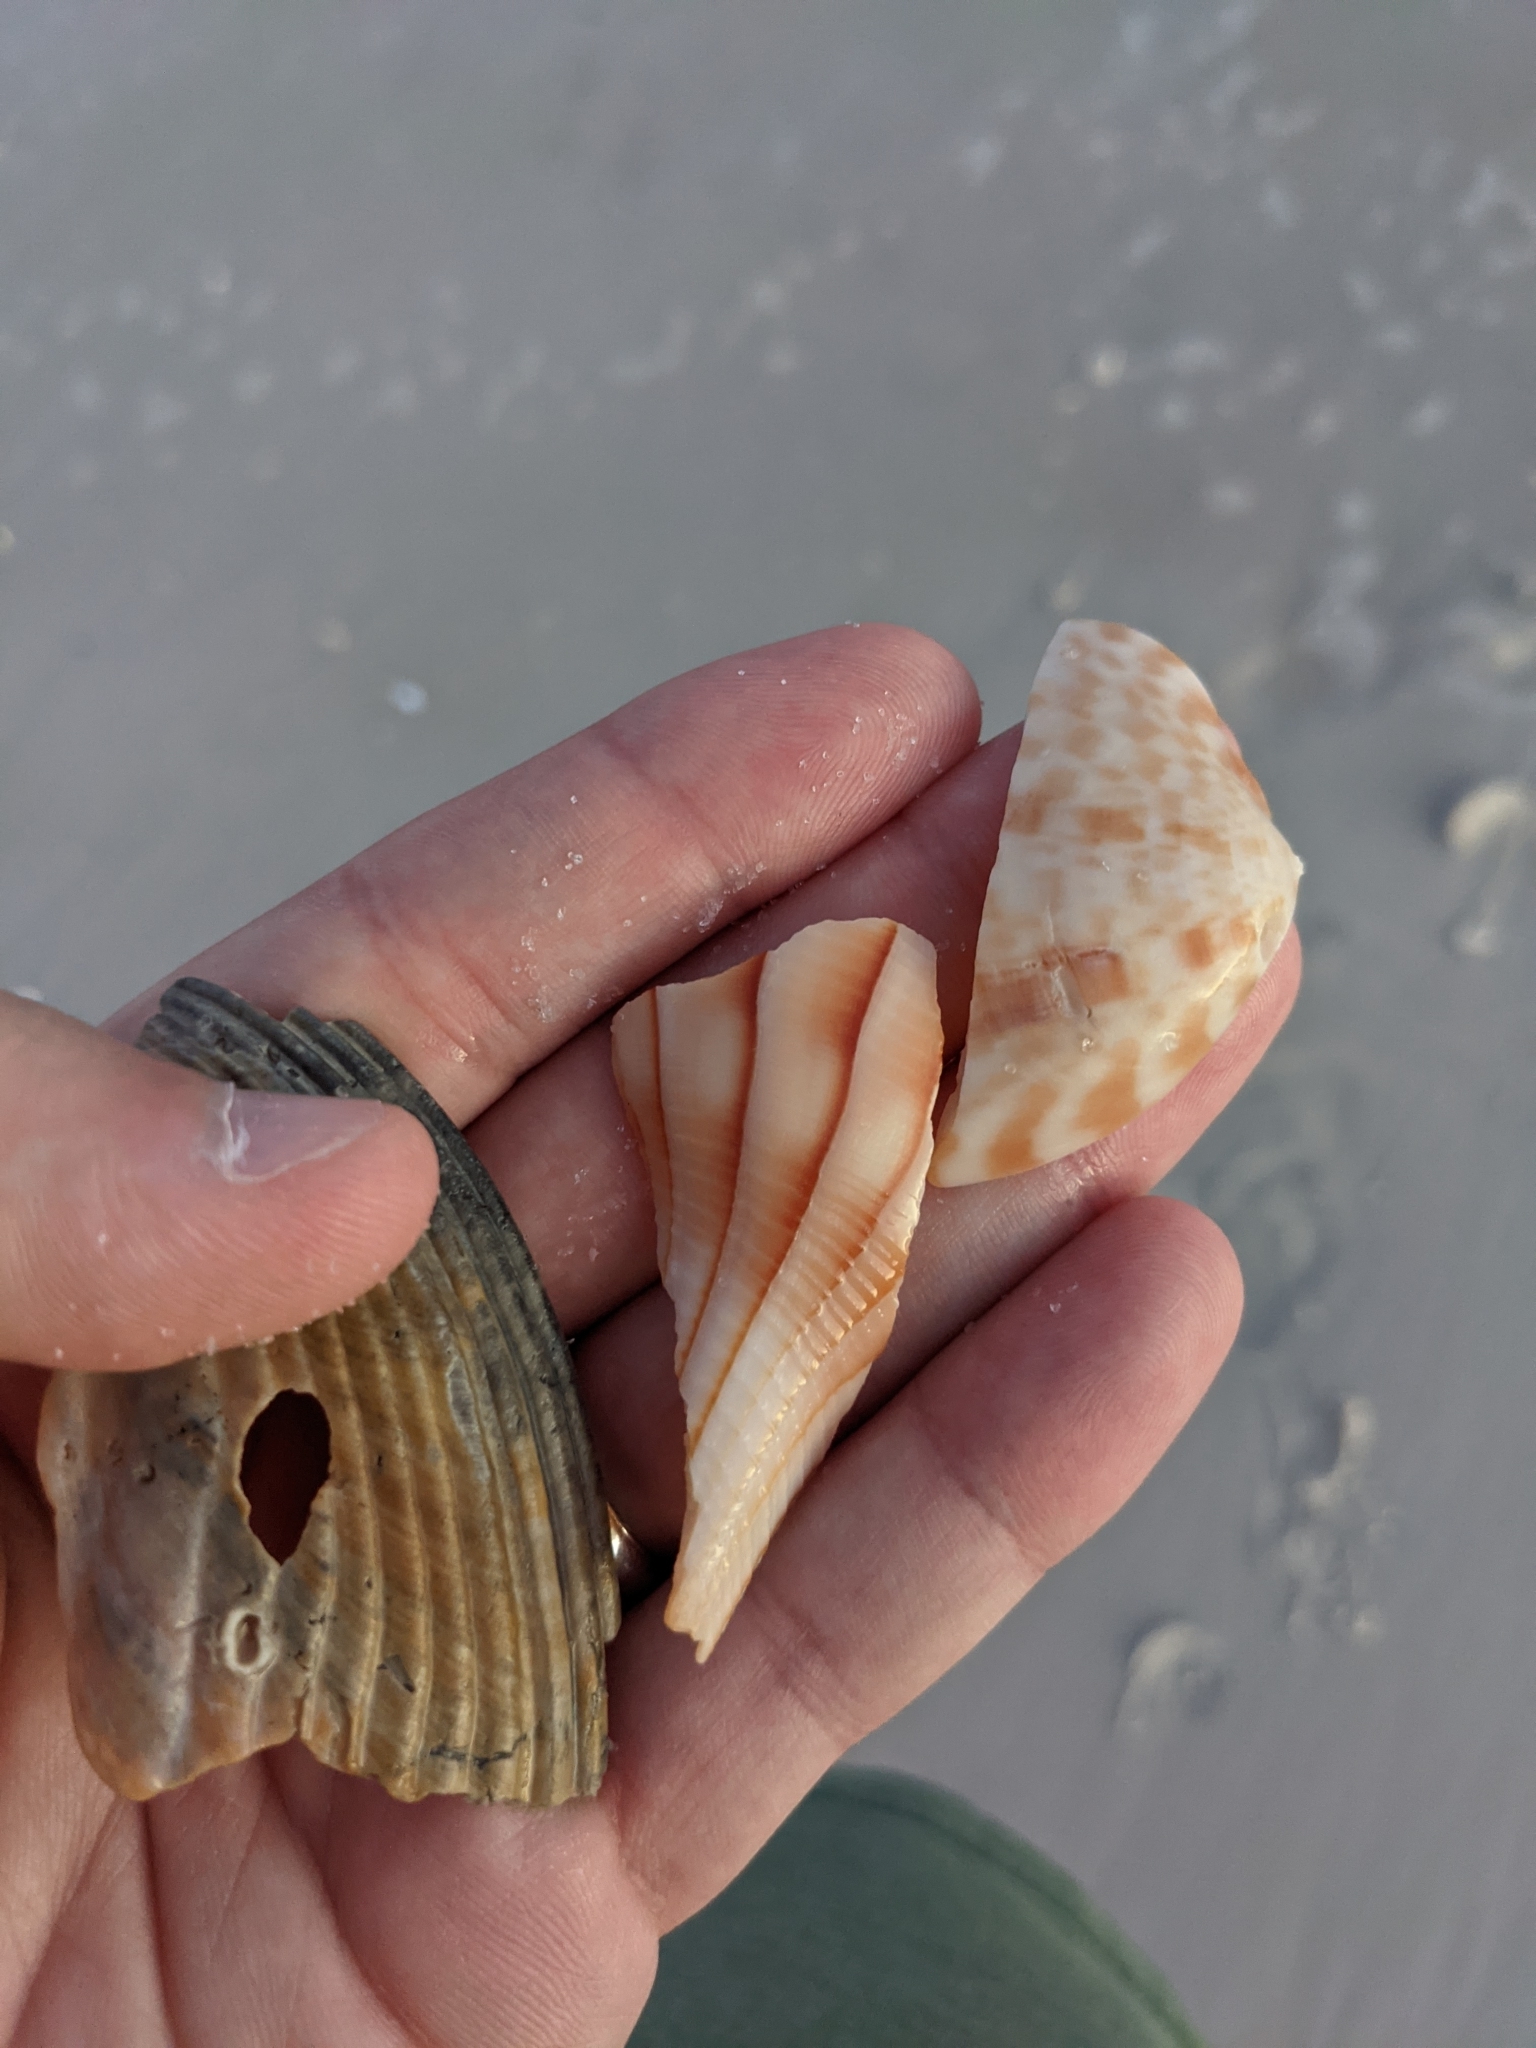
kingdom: Animalia
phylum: Mollusca
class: Gastropoda
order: Neogastropoda
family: Busyconidae
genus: Sinistrofulgur
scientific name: Sinistrofulgur sinistrum
